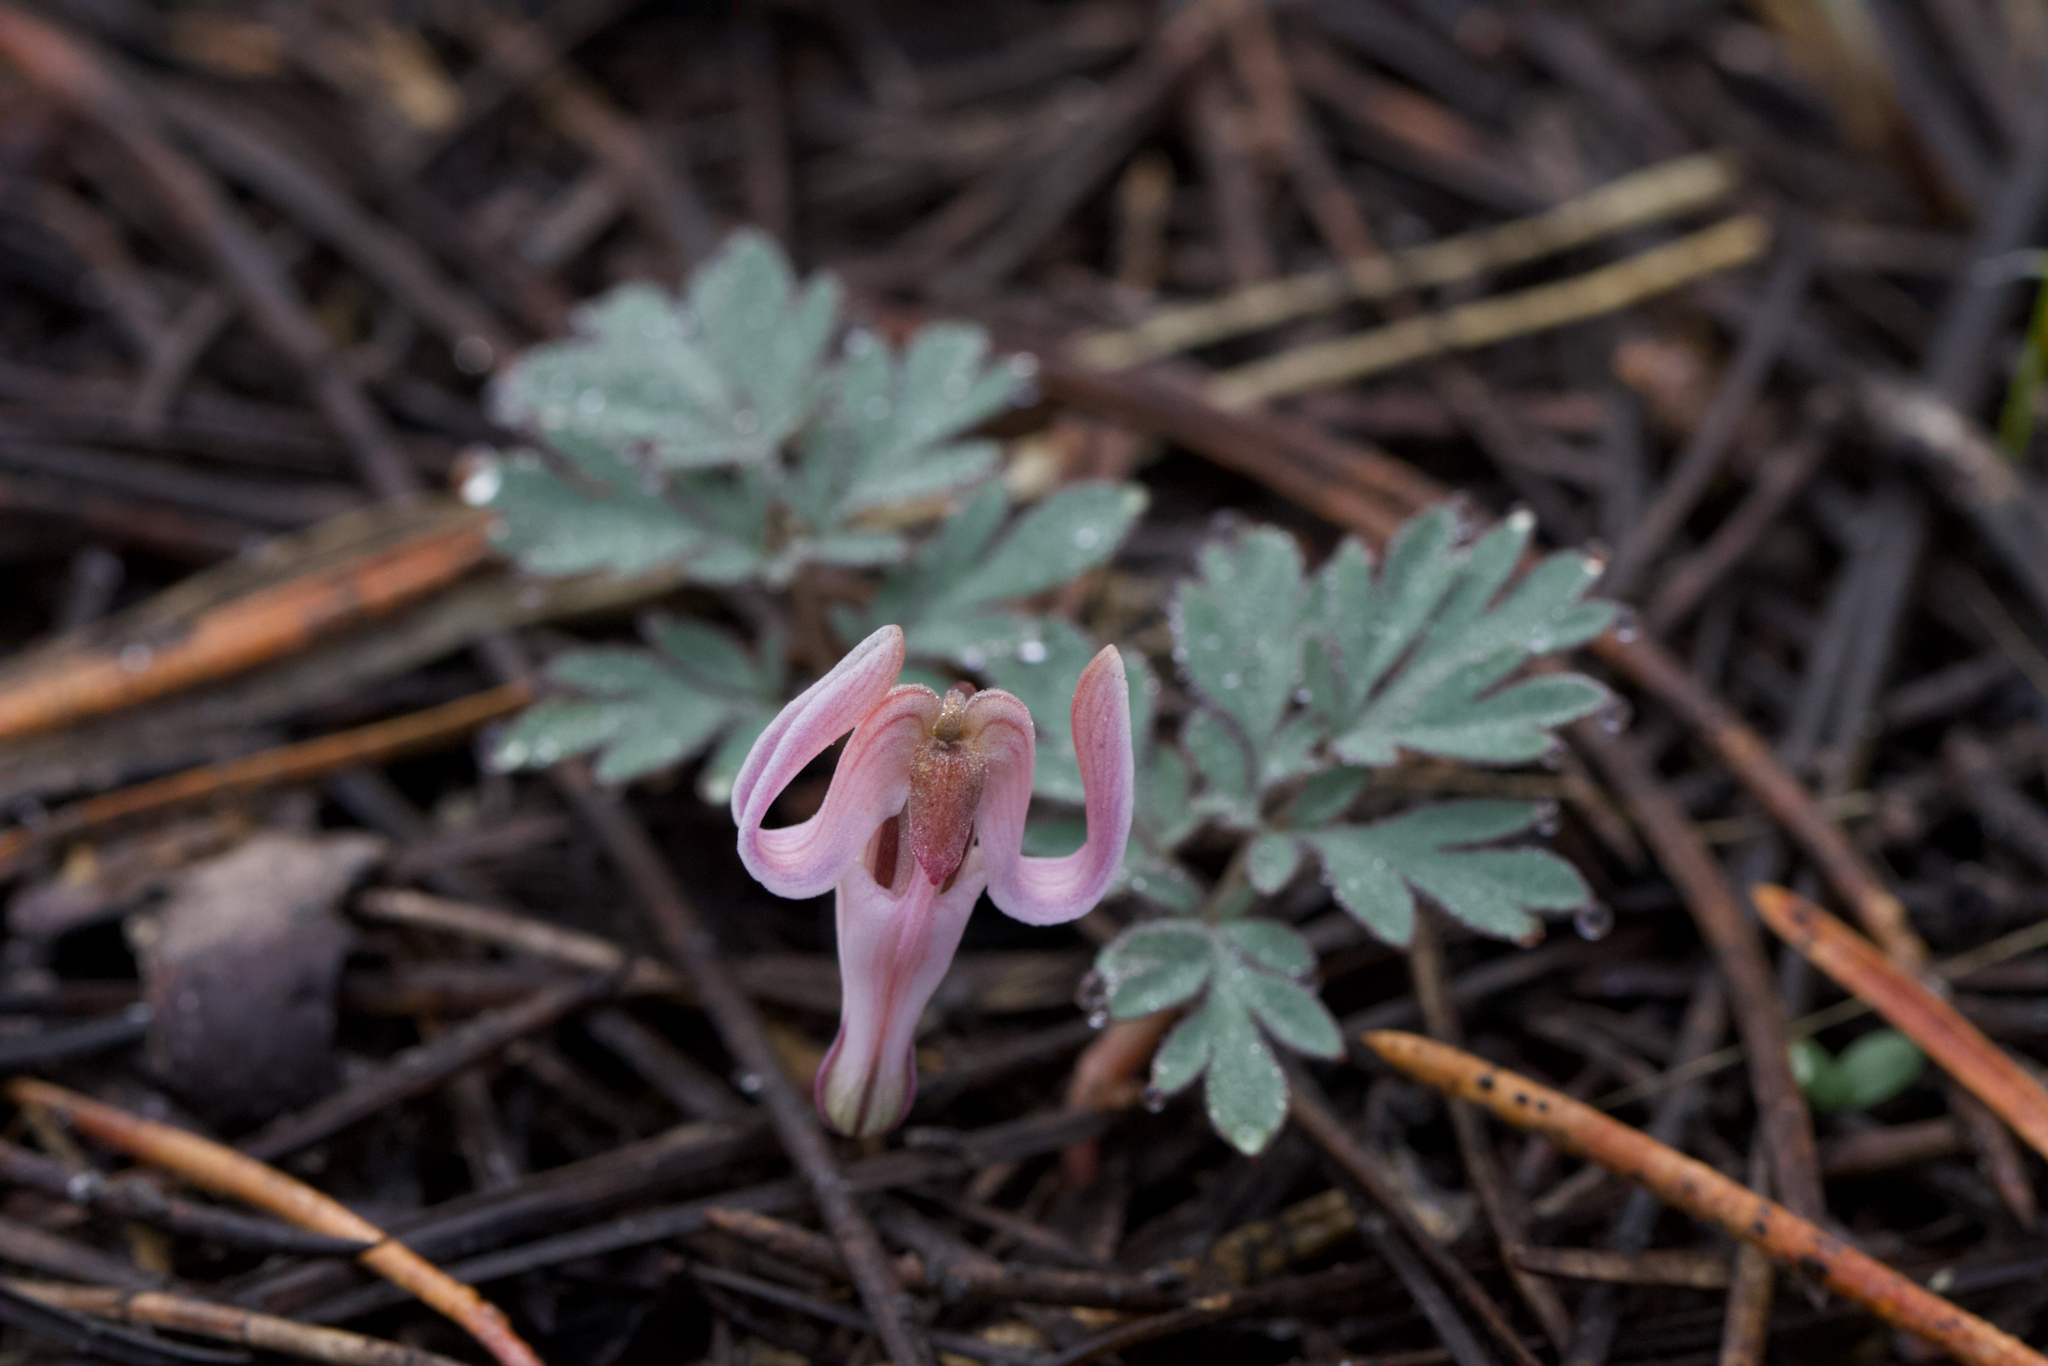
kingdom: Plantae
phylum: Tracheophyta
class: Magnoliopsida
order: Ranunculales
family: Papaveraceae
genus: Dicentra
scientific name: Dicentra uniflora
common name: Steer's-head
